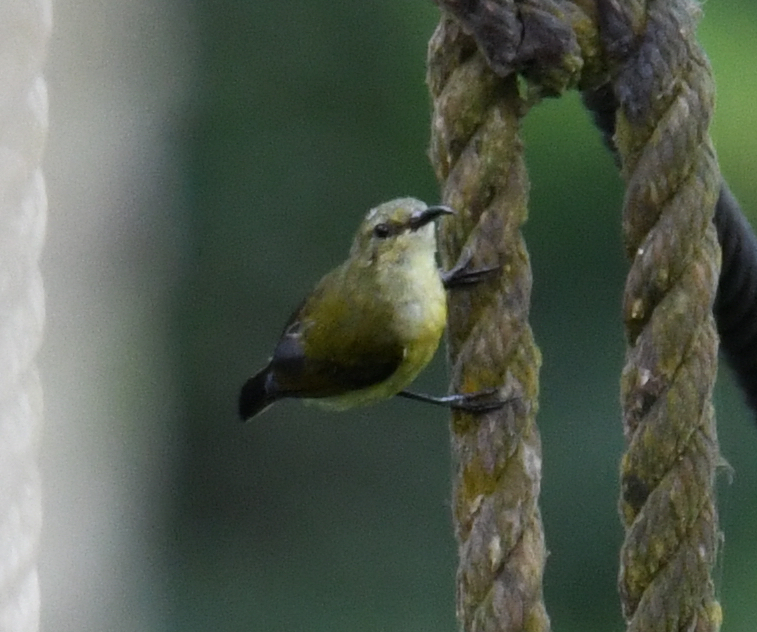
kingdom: Animalia
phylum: Chordata
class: Aves
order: Passeriformes
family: Nectariniidae
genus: Cinnyris
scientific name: Cinnyris minullus
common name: Tiny sunbird
